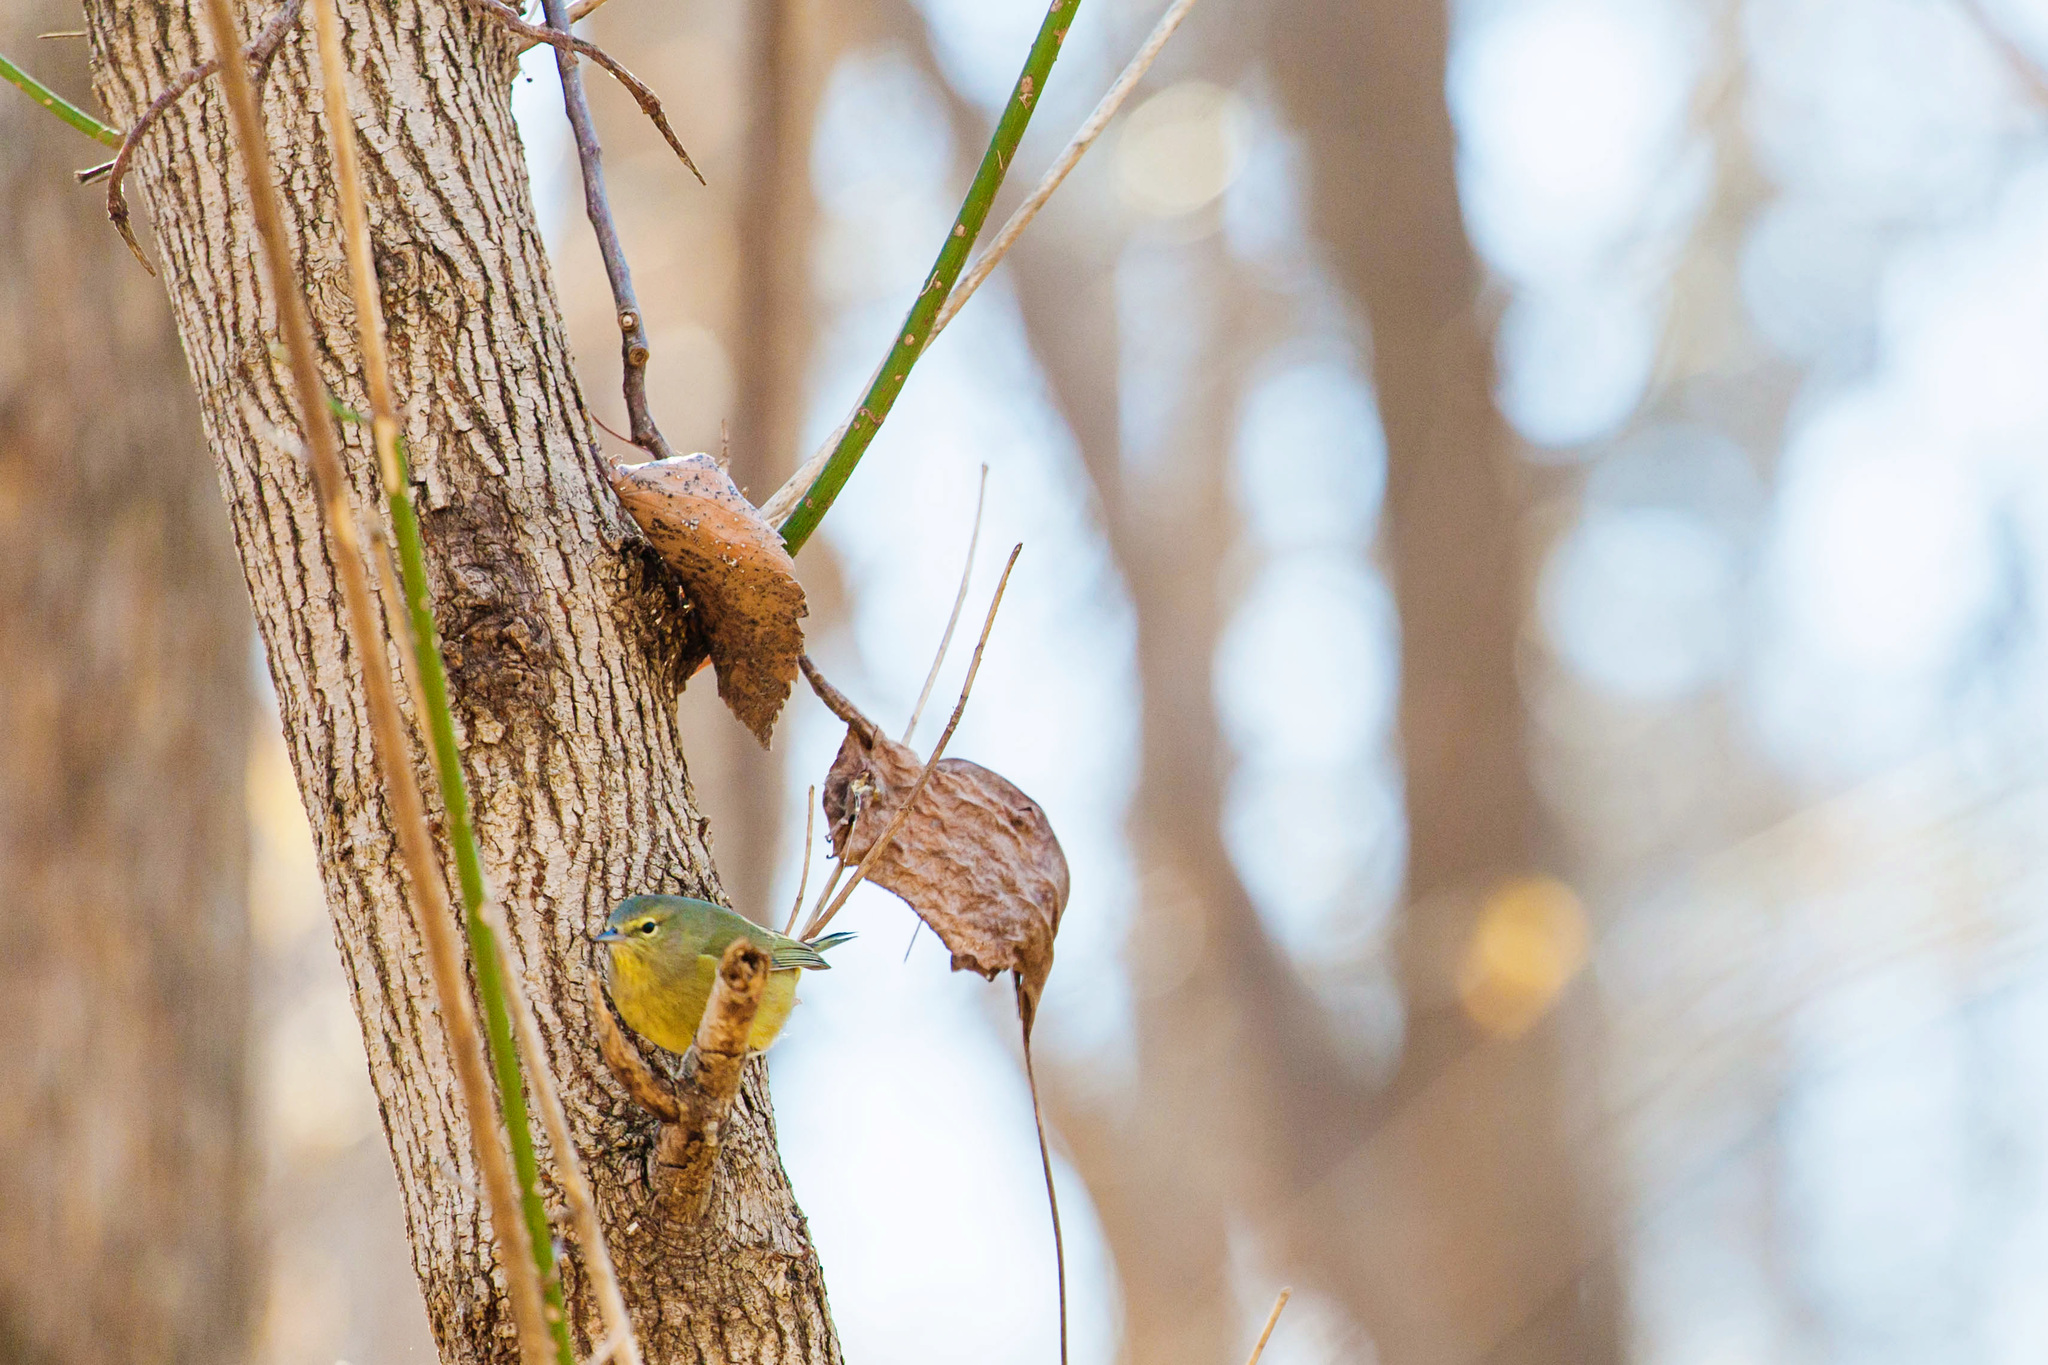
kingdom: Animalia
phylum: Chordata
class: Aves
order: Passeriformes
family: Parulidae
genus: Leiothlypis
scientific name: Leiothlypis celata
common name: Orange-crowned warbler
